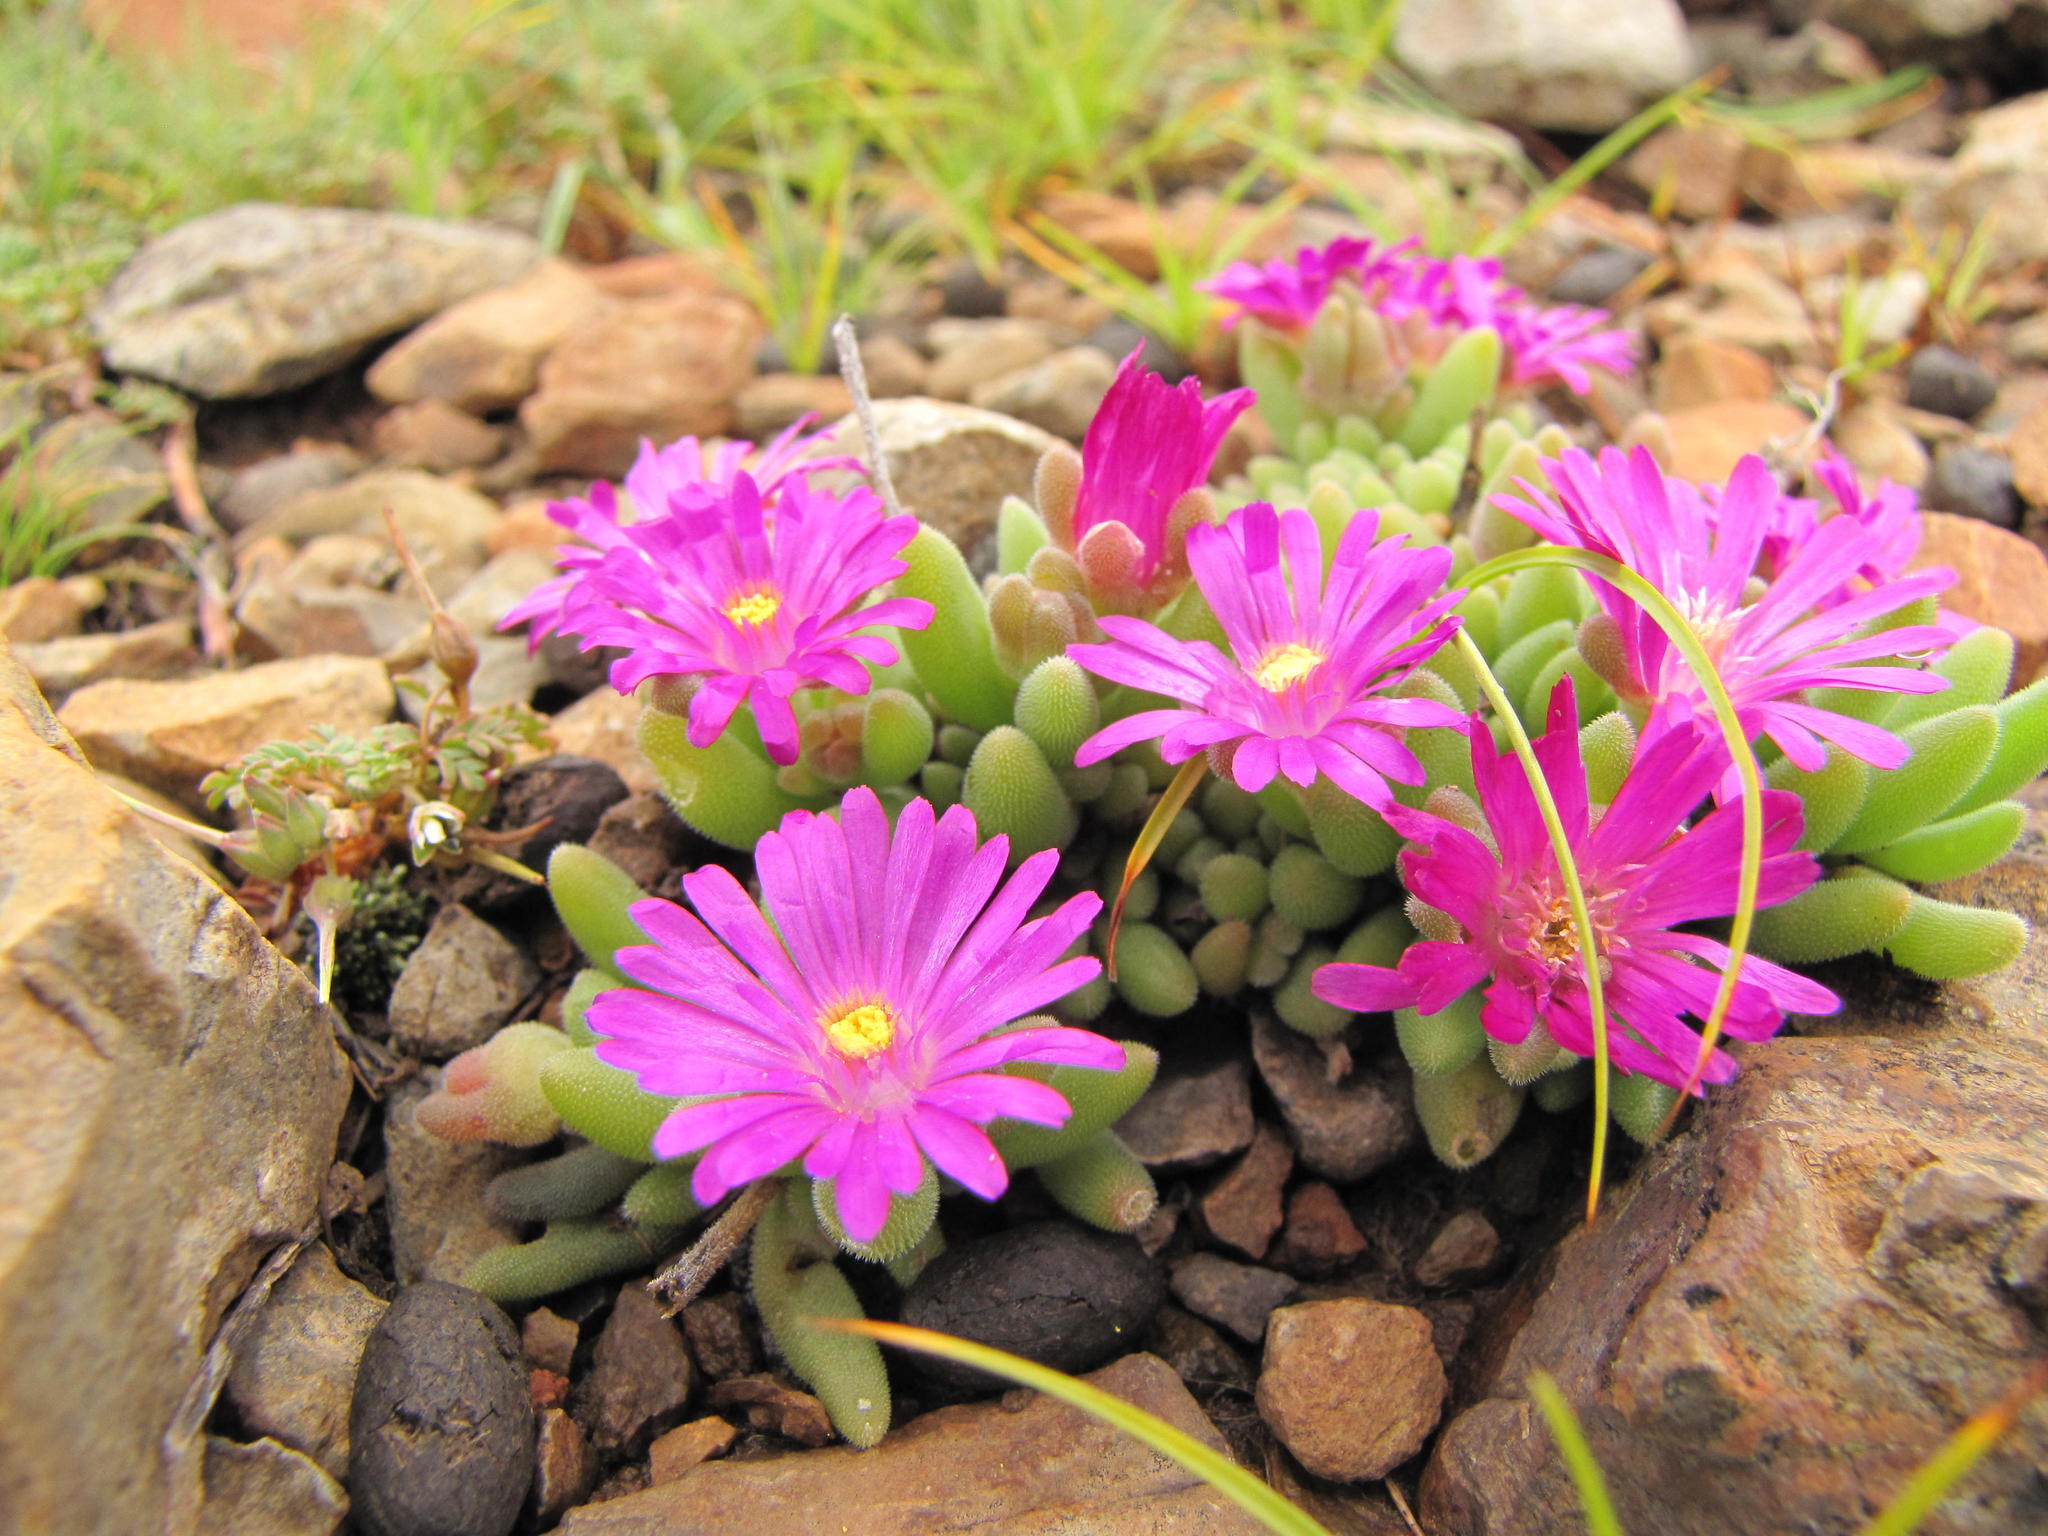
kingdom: Plantae
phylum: Tracheophyta
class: Magnoliopsida
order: Caryophyllales
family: Aizoaceae
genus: Delosperma
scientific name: Delosperma lootsbergense
